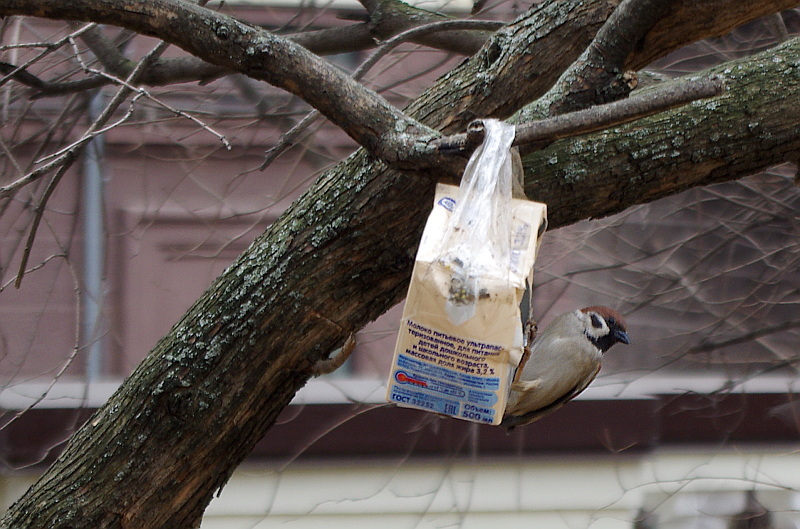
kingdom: Animalia
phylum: Chordata
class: Aves
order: Passeriformes
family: Passeridae
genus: Passer
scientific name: Passer montanus
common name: Eurasian tree sparrow
